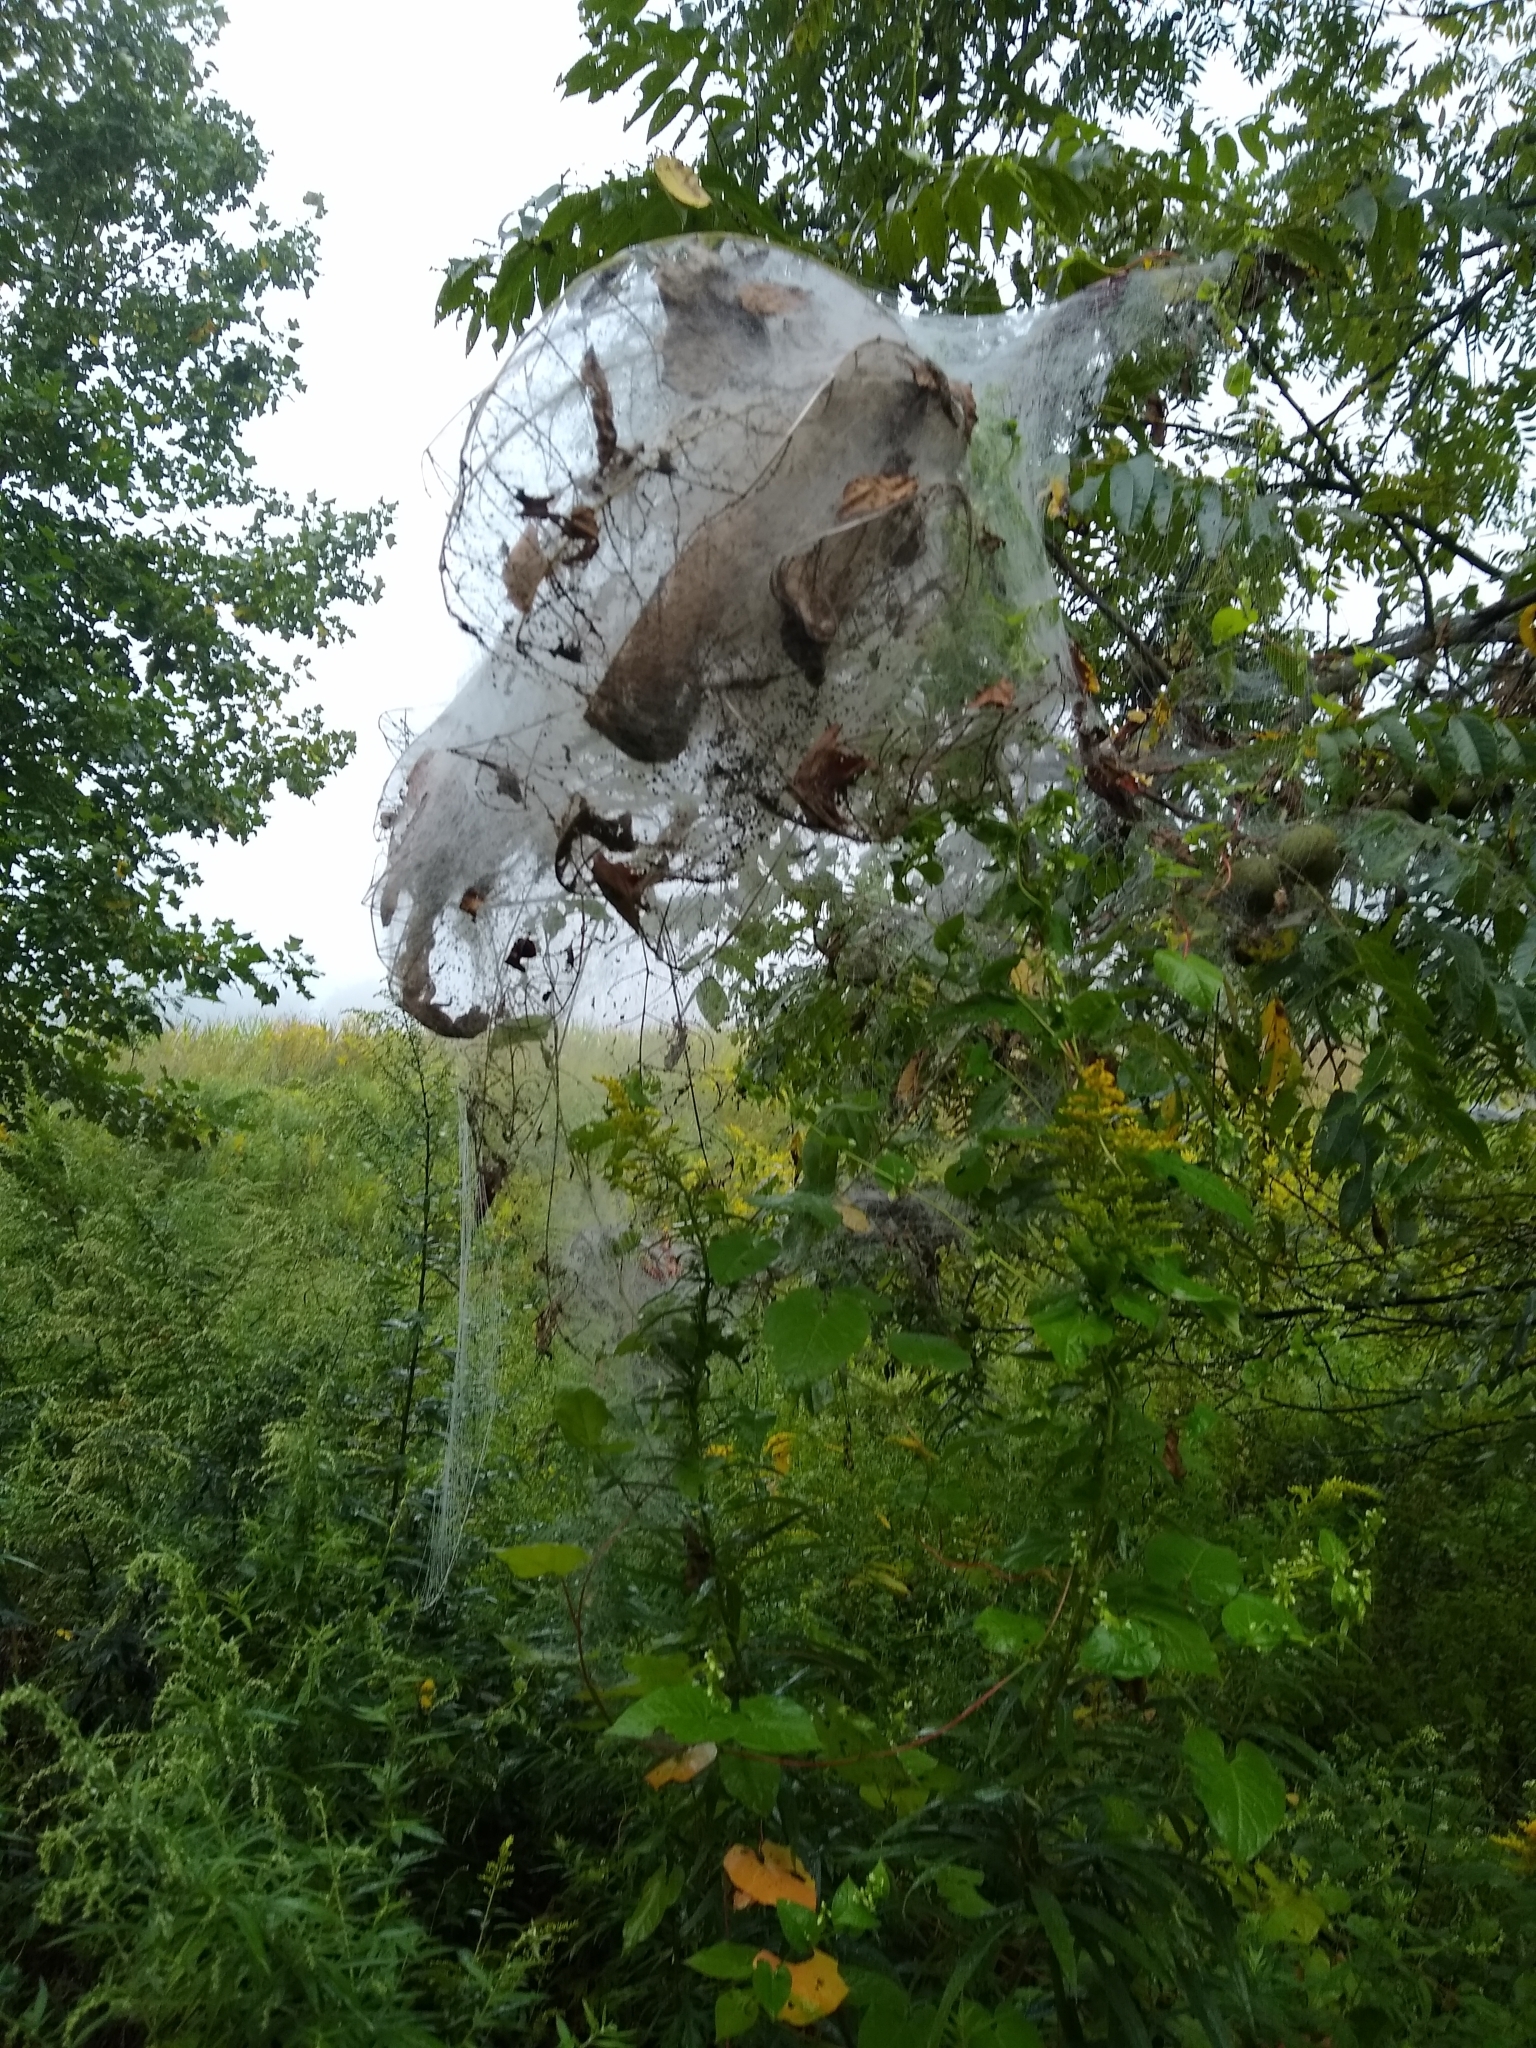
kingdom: Animalia
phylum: Arthropoda
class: Insecta
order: Lepidoptera
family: Erebidae
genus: Hyphantria
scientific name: Hyphantria cunea
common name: American white moth
